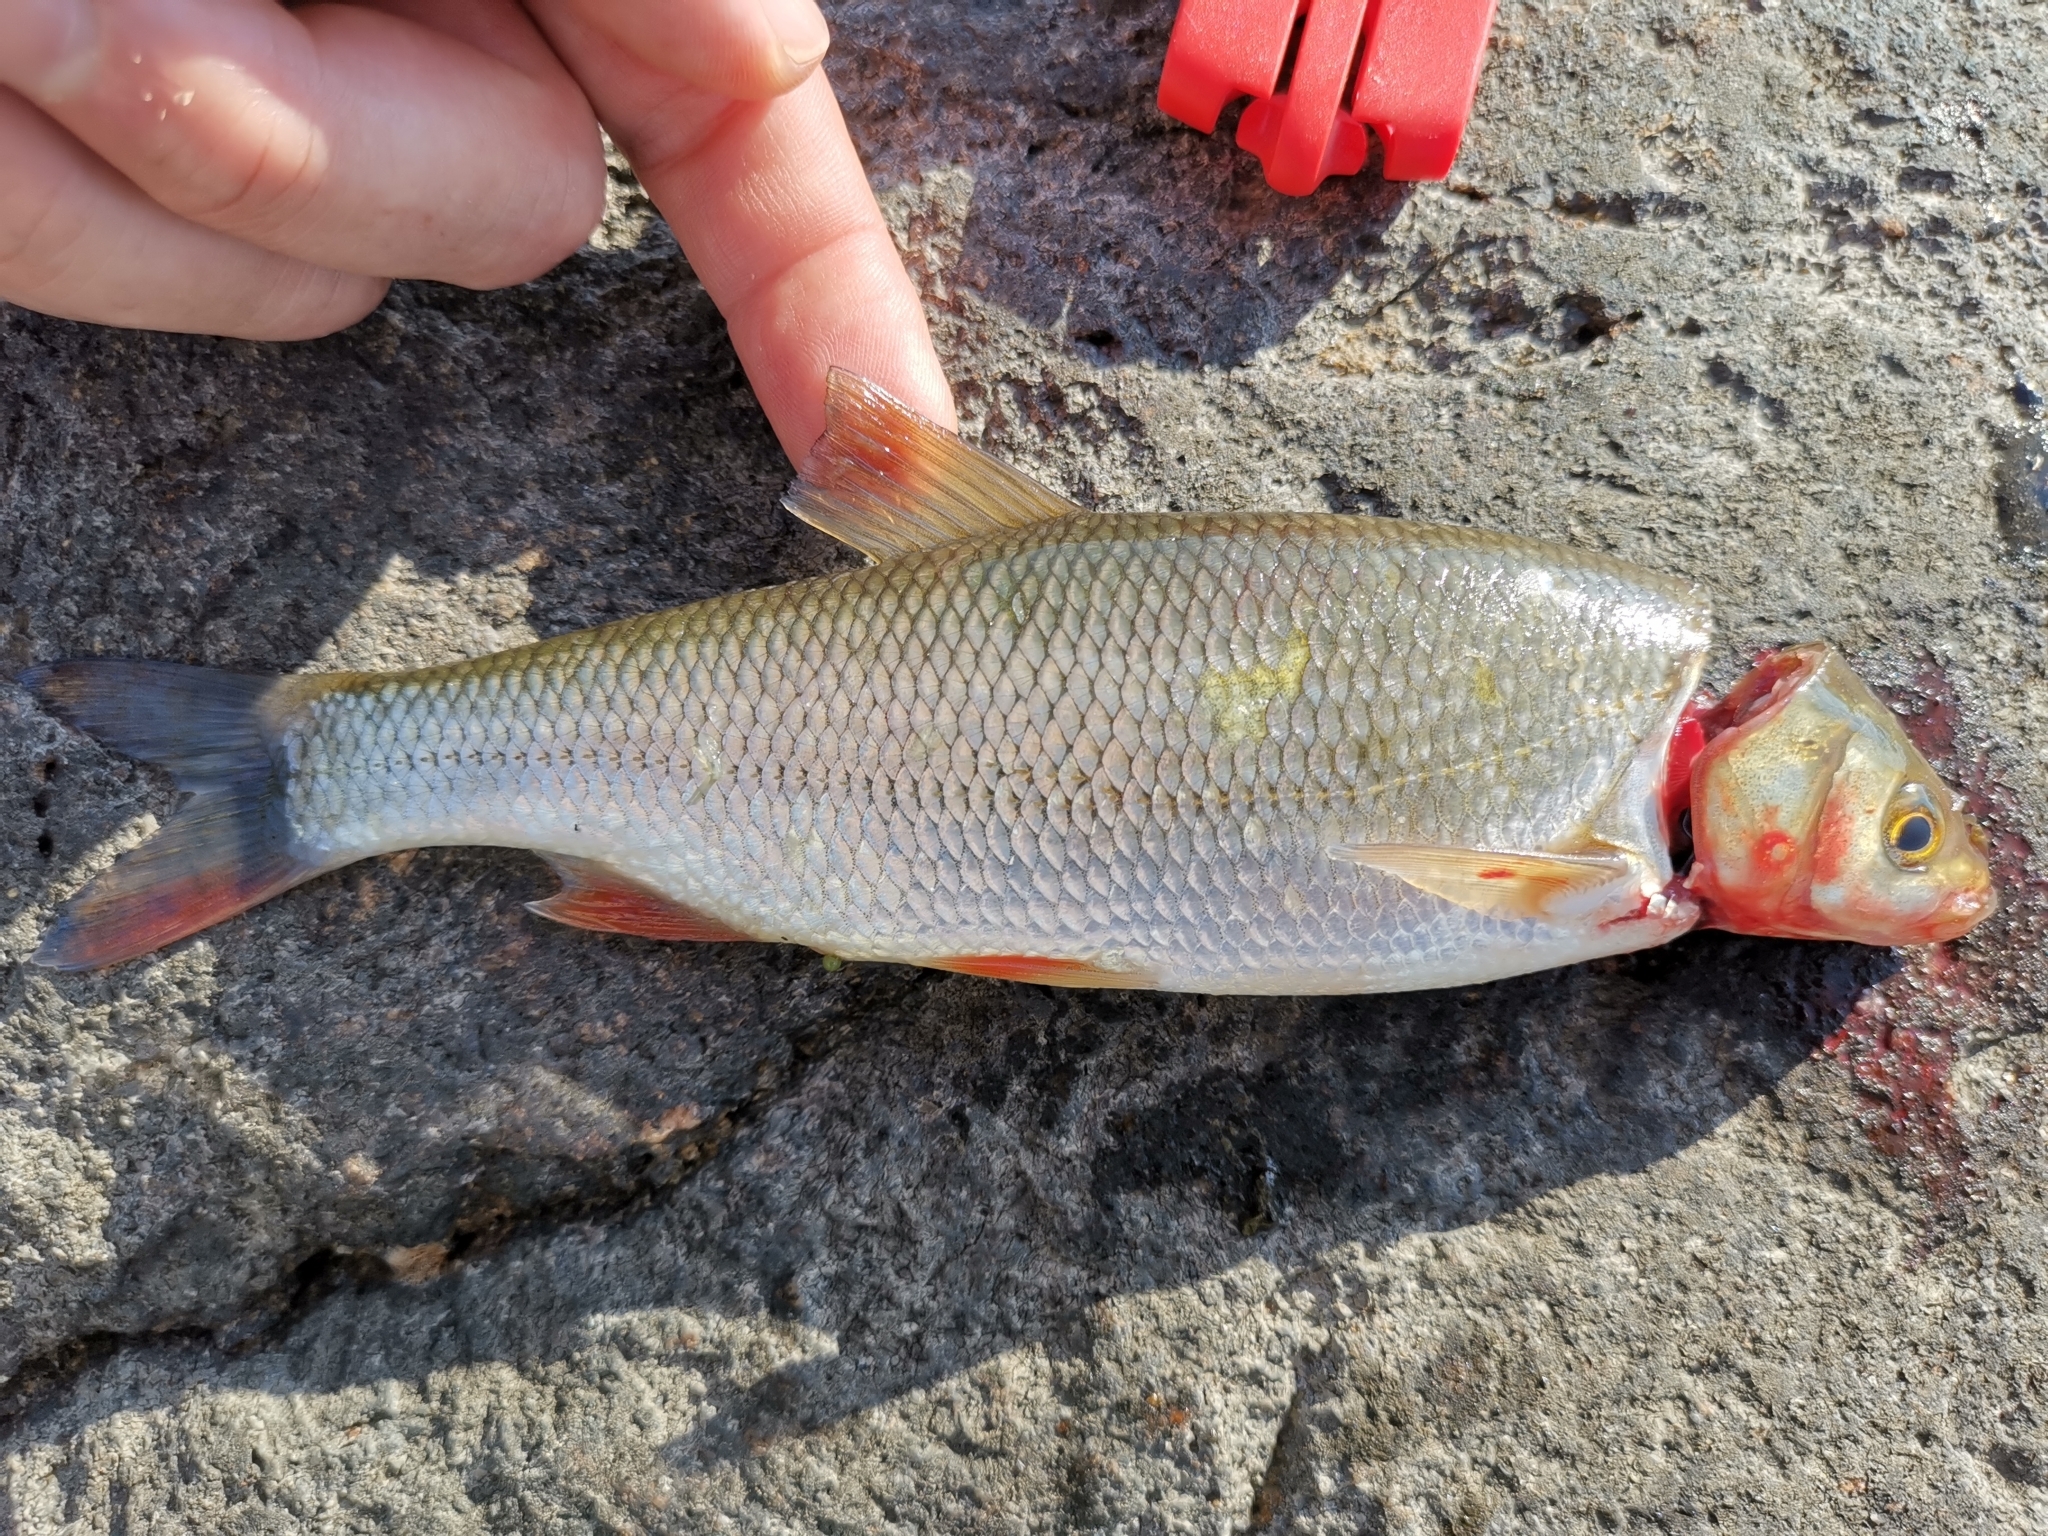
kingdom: Animalia
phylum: Chordata
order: Cypriniformes
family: Cyprinidae
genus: Leuciscus
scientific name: Leuciscus idus
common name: Ide
